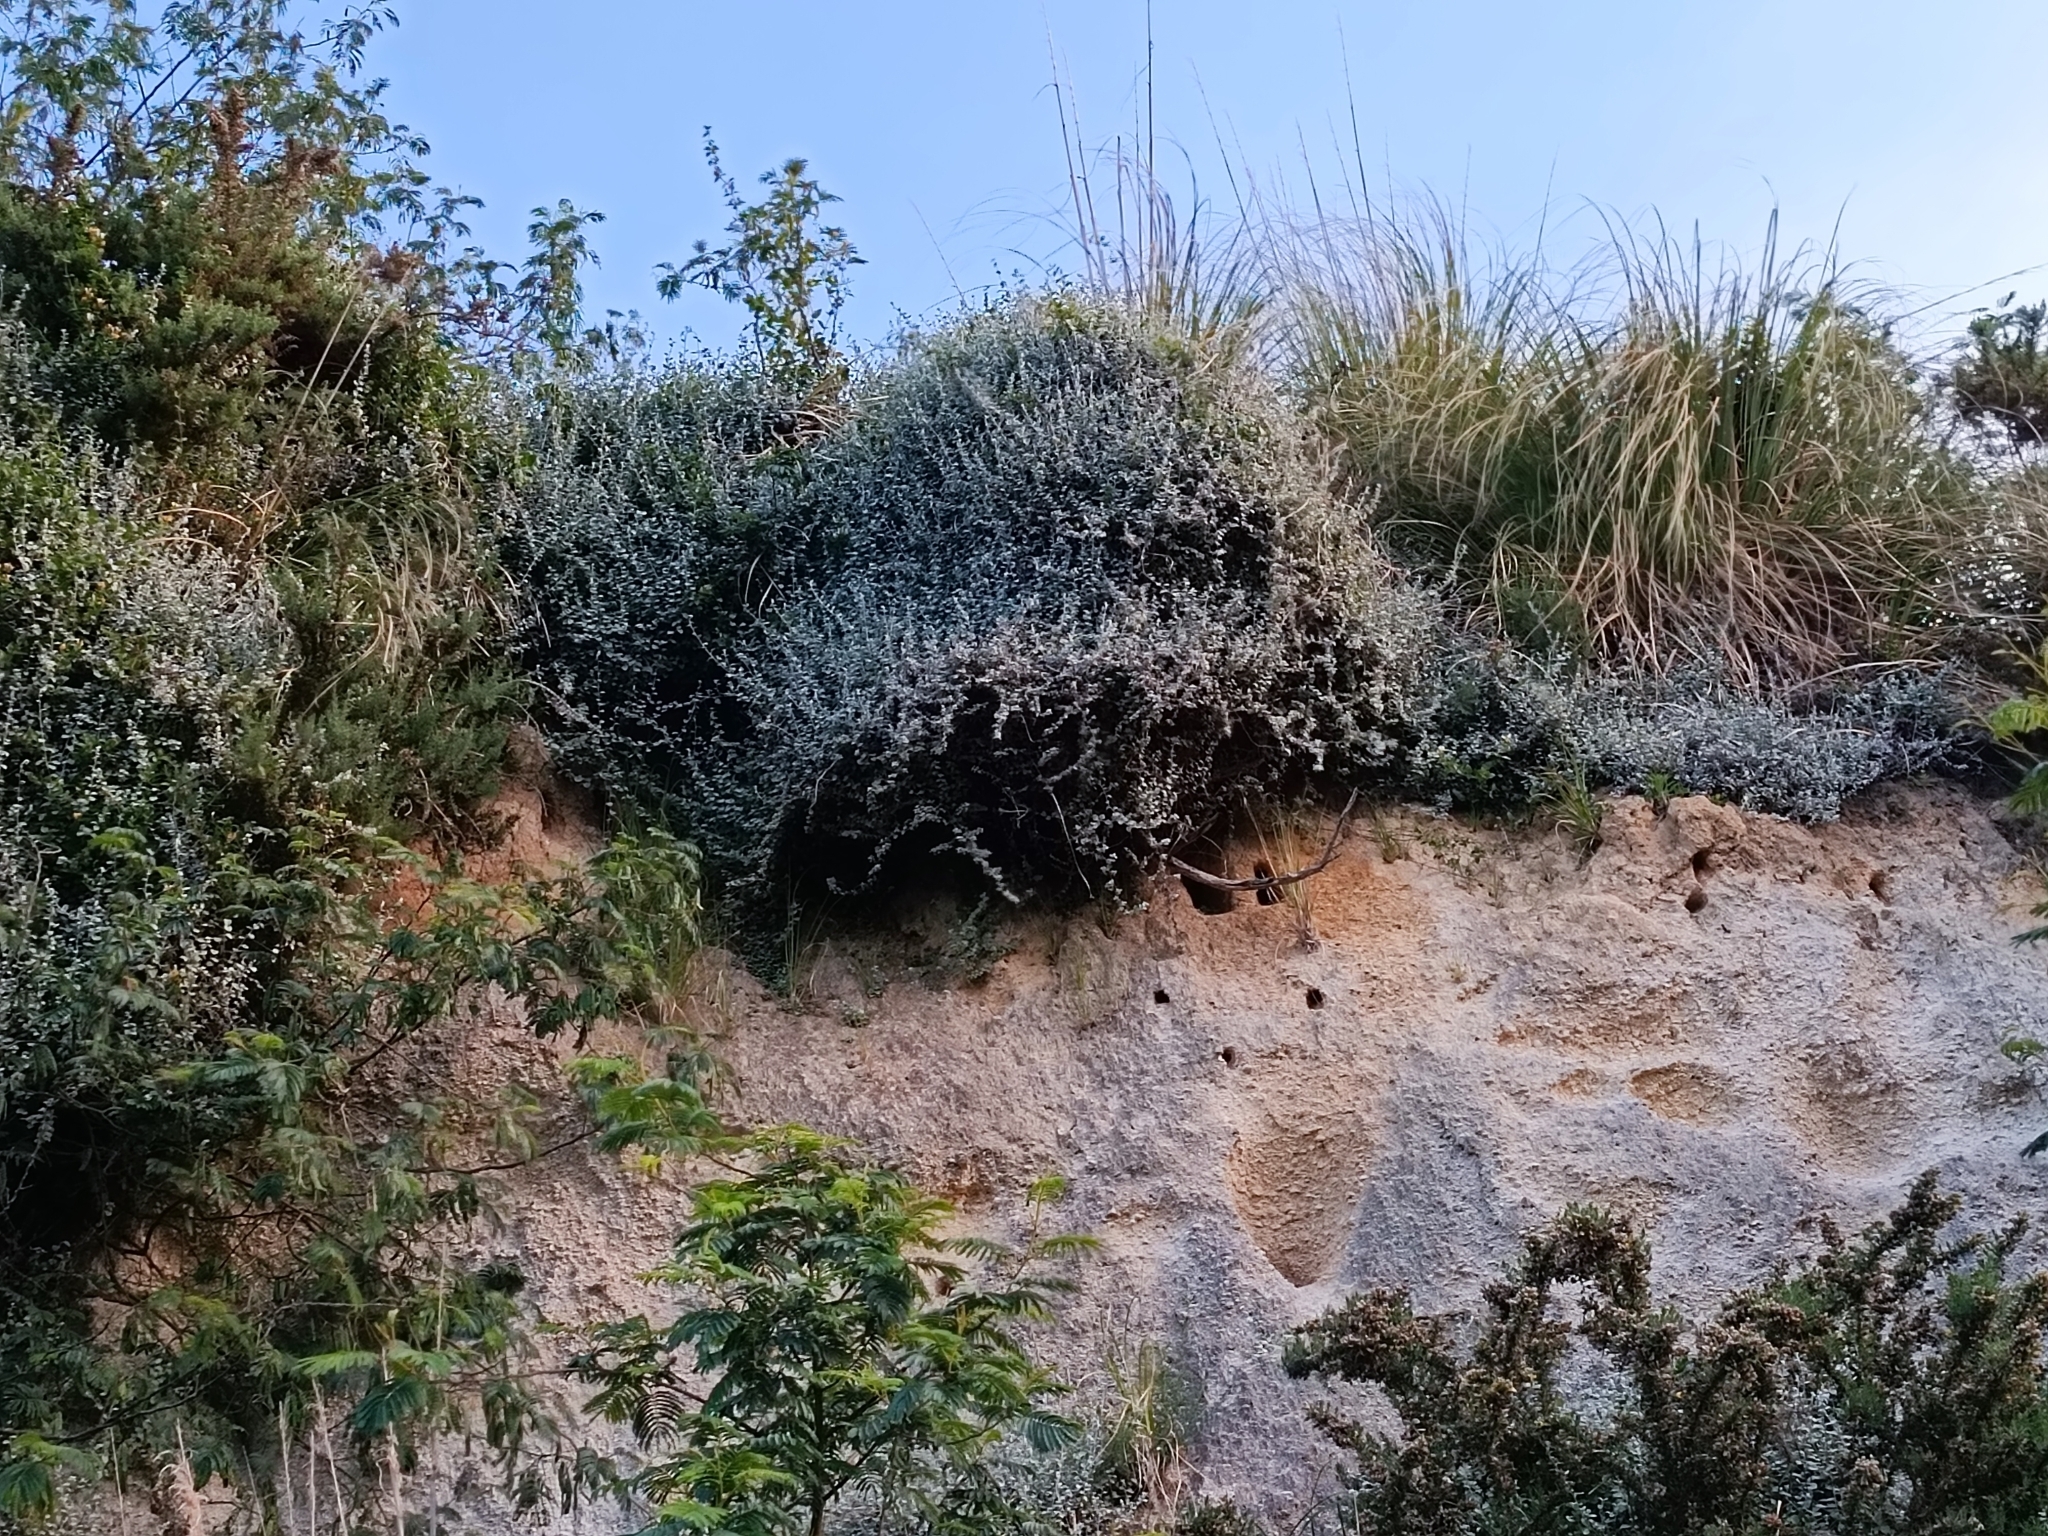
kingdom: Plantae
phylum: Tracheophyta
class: Magnoliopsida
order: Asterales
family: Asteraceae
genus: Helichrysum
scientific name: Helichrysum petiolare
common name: Licorice-plant
